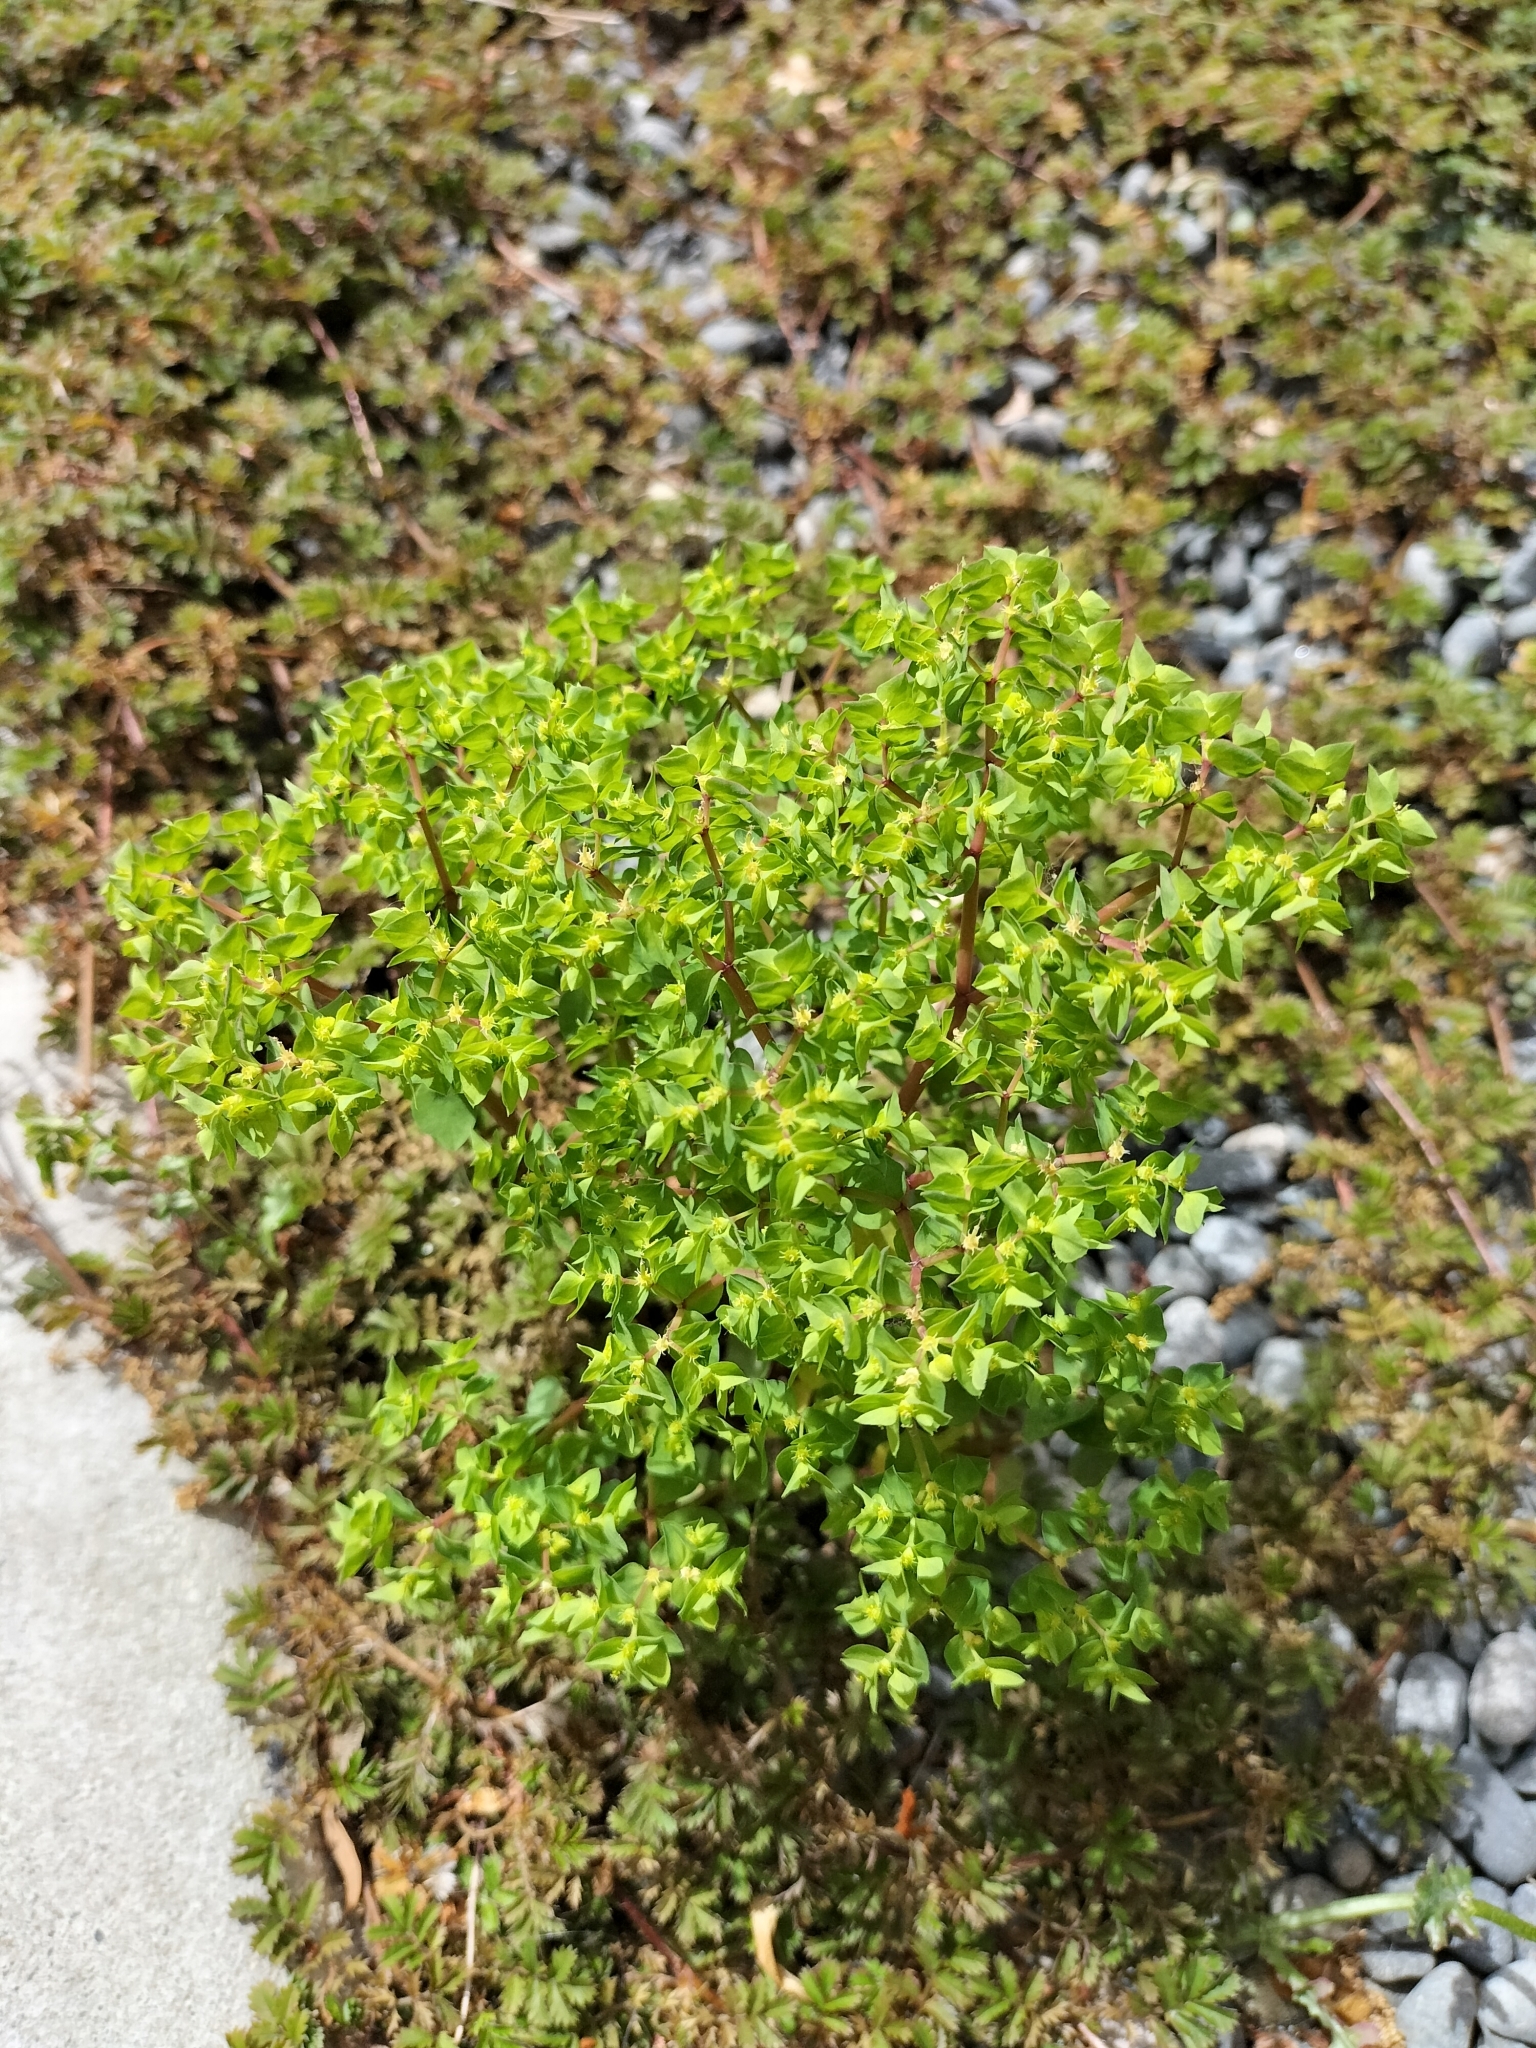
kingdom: Plantae
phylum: Tracheophyta
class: Magnoliopsida
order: Malpighiales
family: Euphorbiaceae
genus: Euphorbia
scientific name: Euphorbia peplus
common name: Petty spurge
